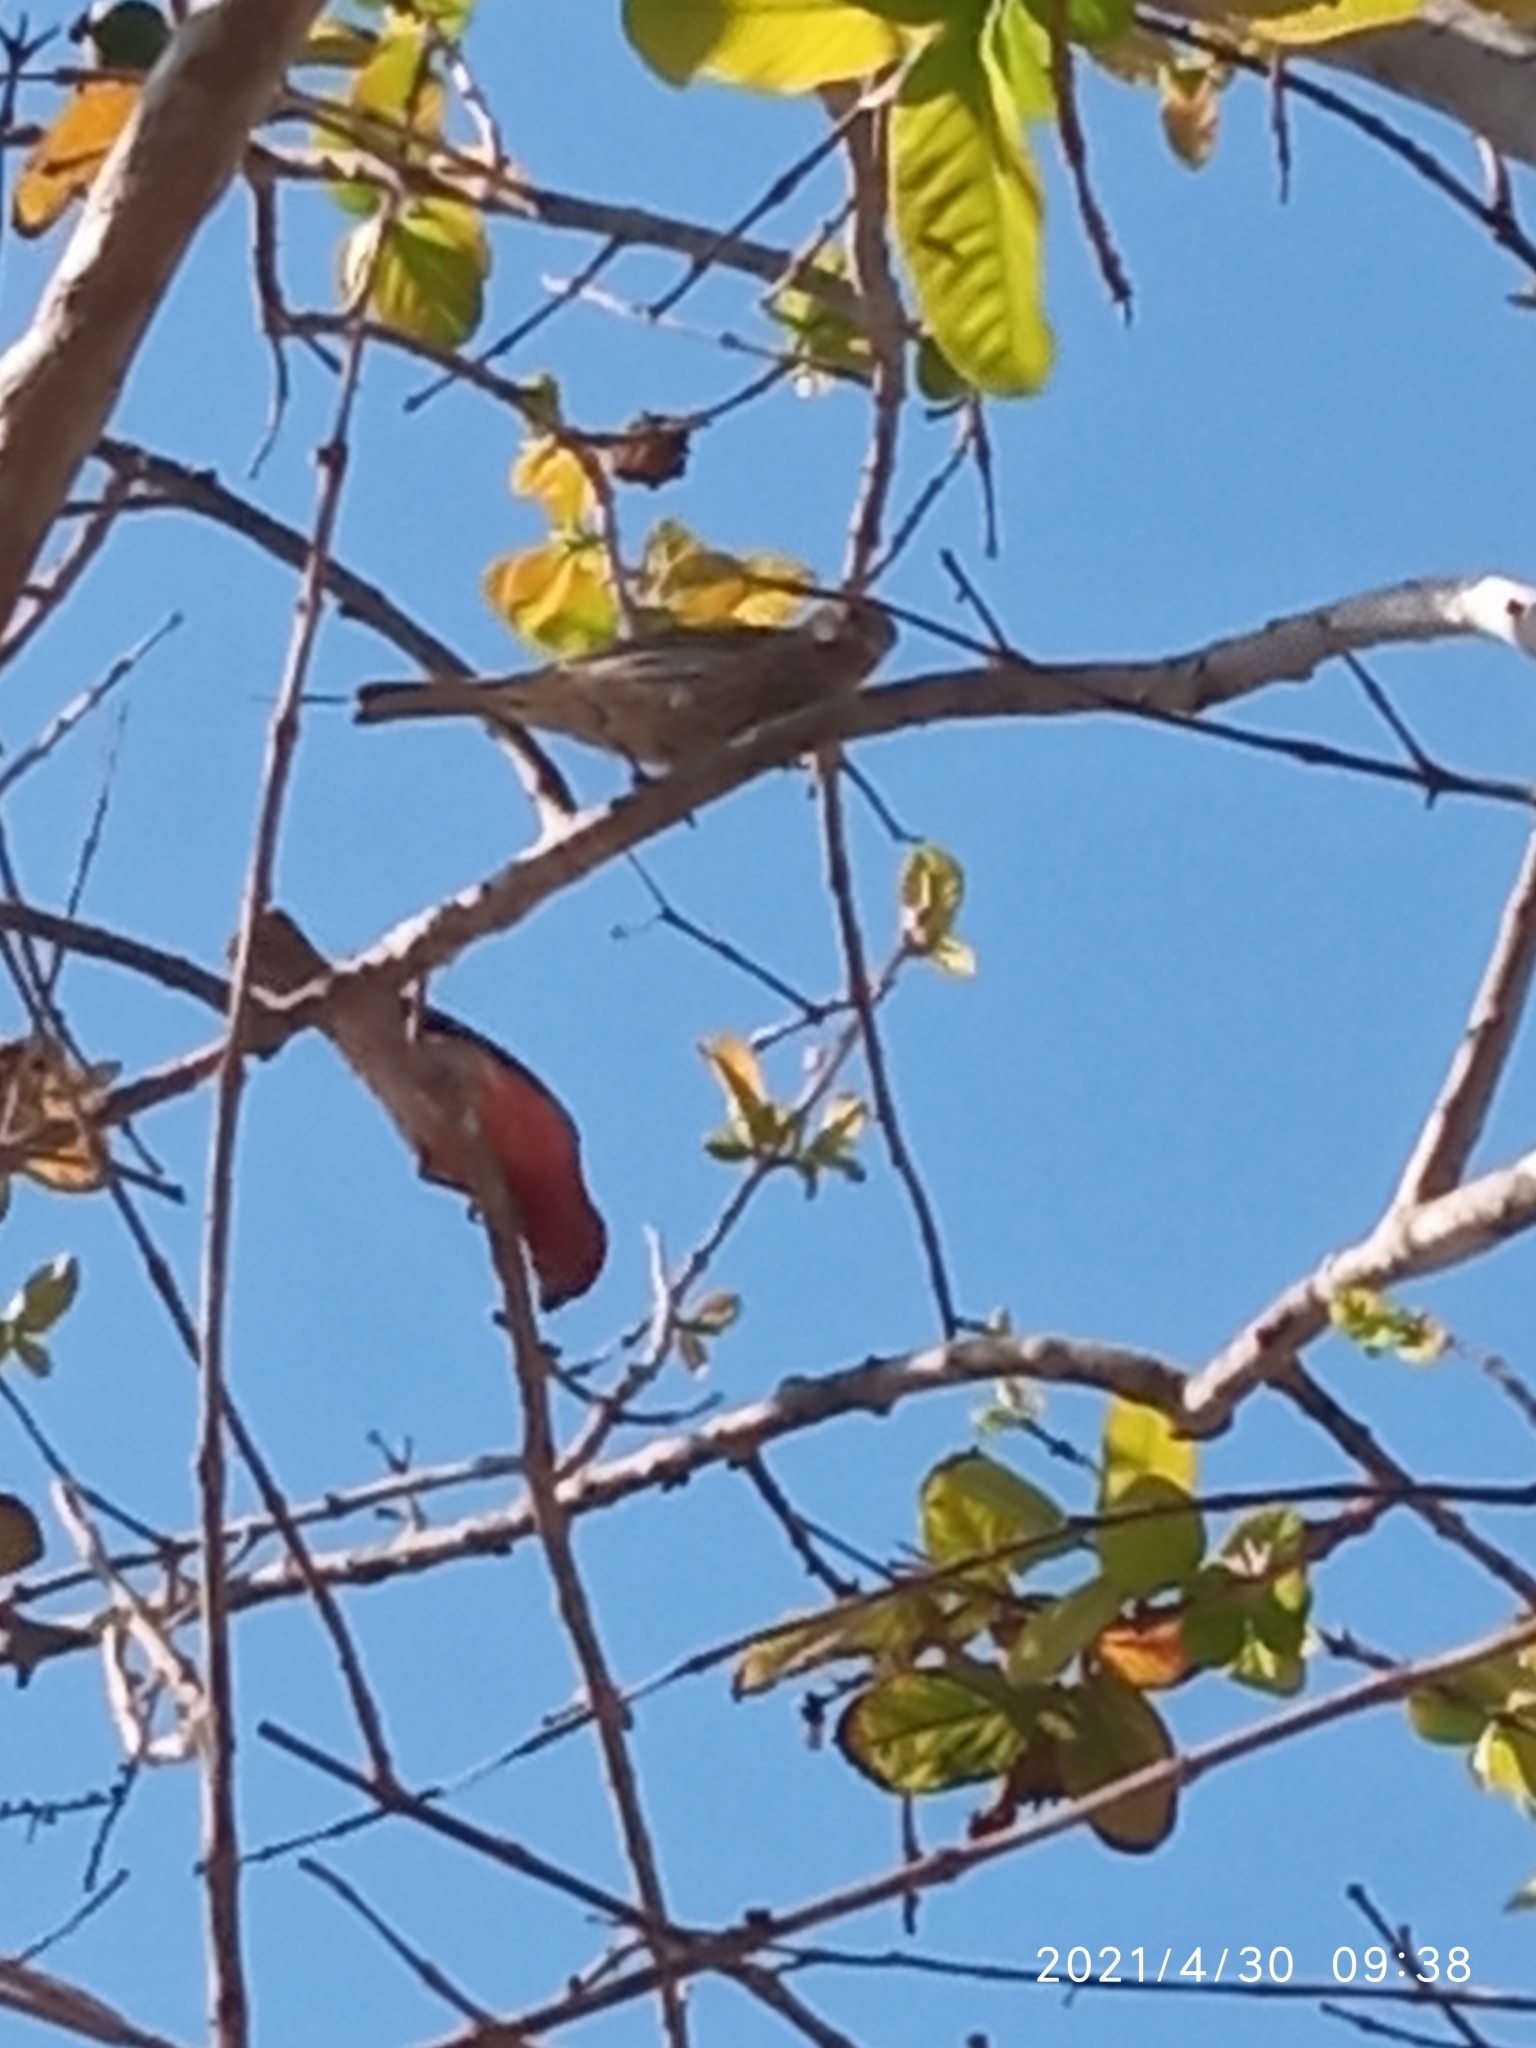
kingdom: Animalia
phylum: Chordata
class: Aves
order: Passeriformes
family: Fringillidae
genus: Haemorhous
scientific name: Haemorhous mexicanus
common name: House finch
